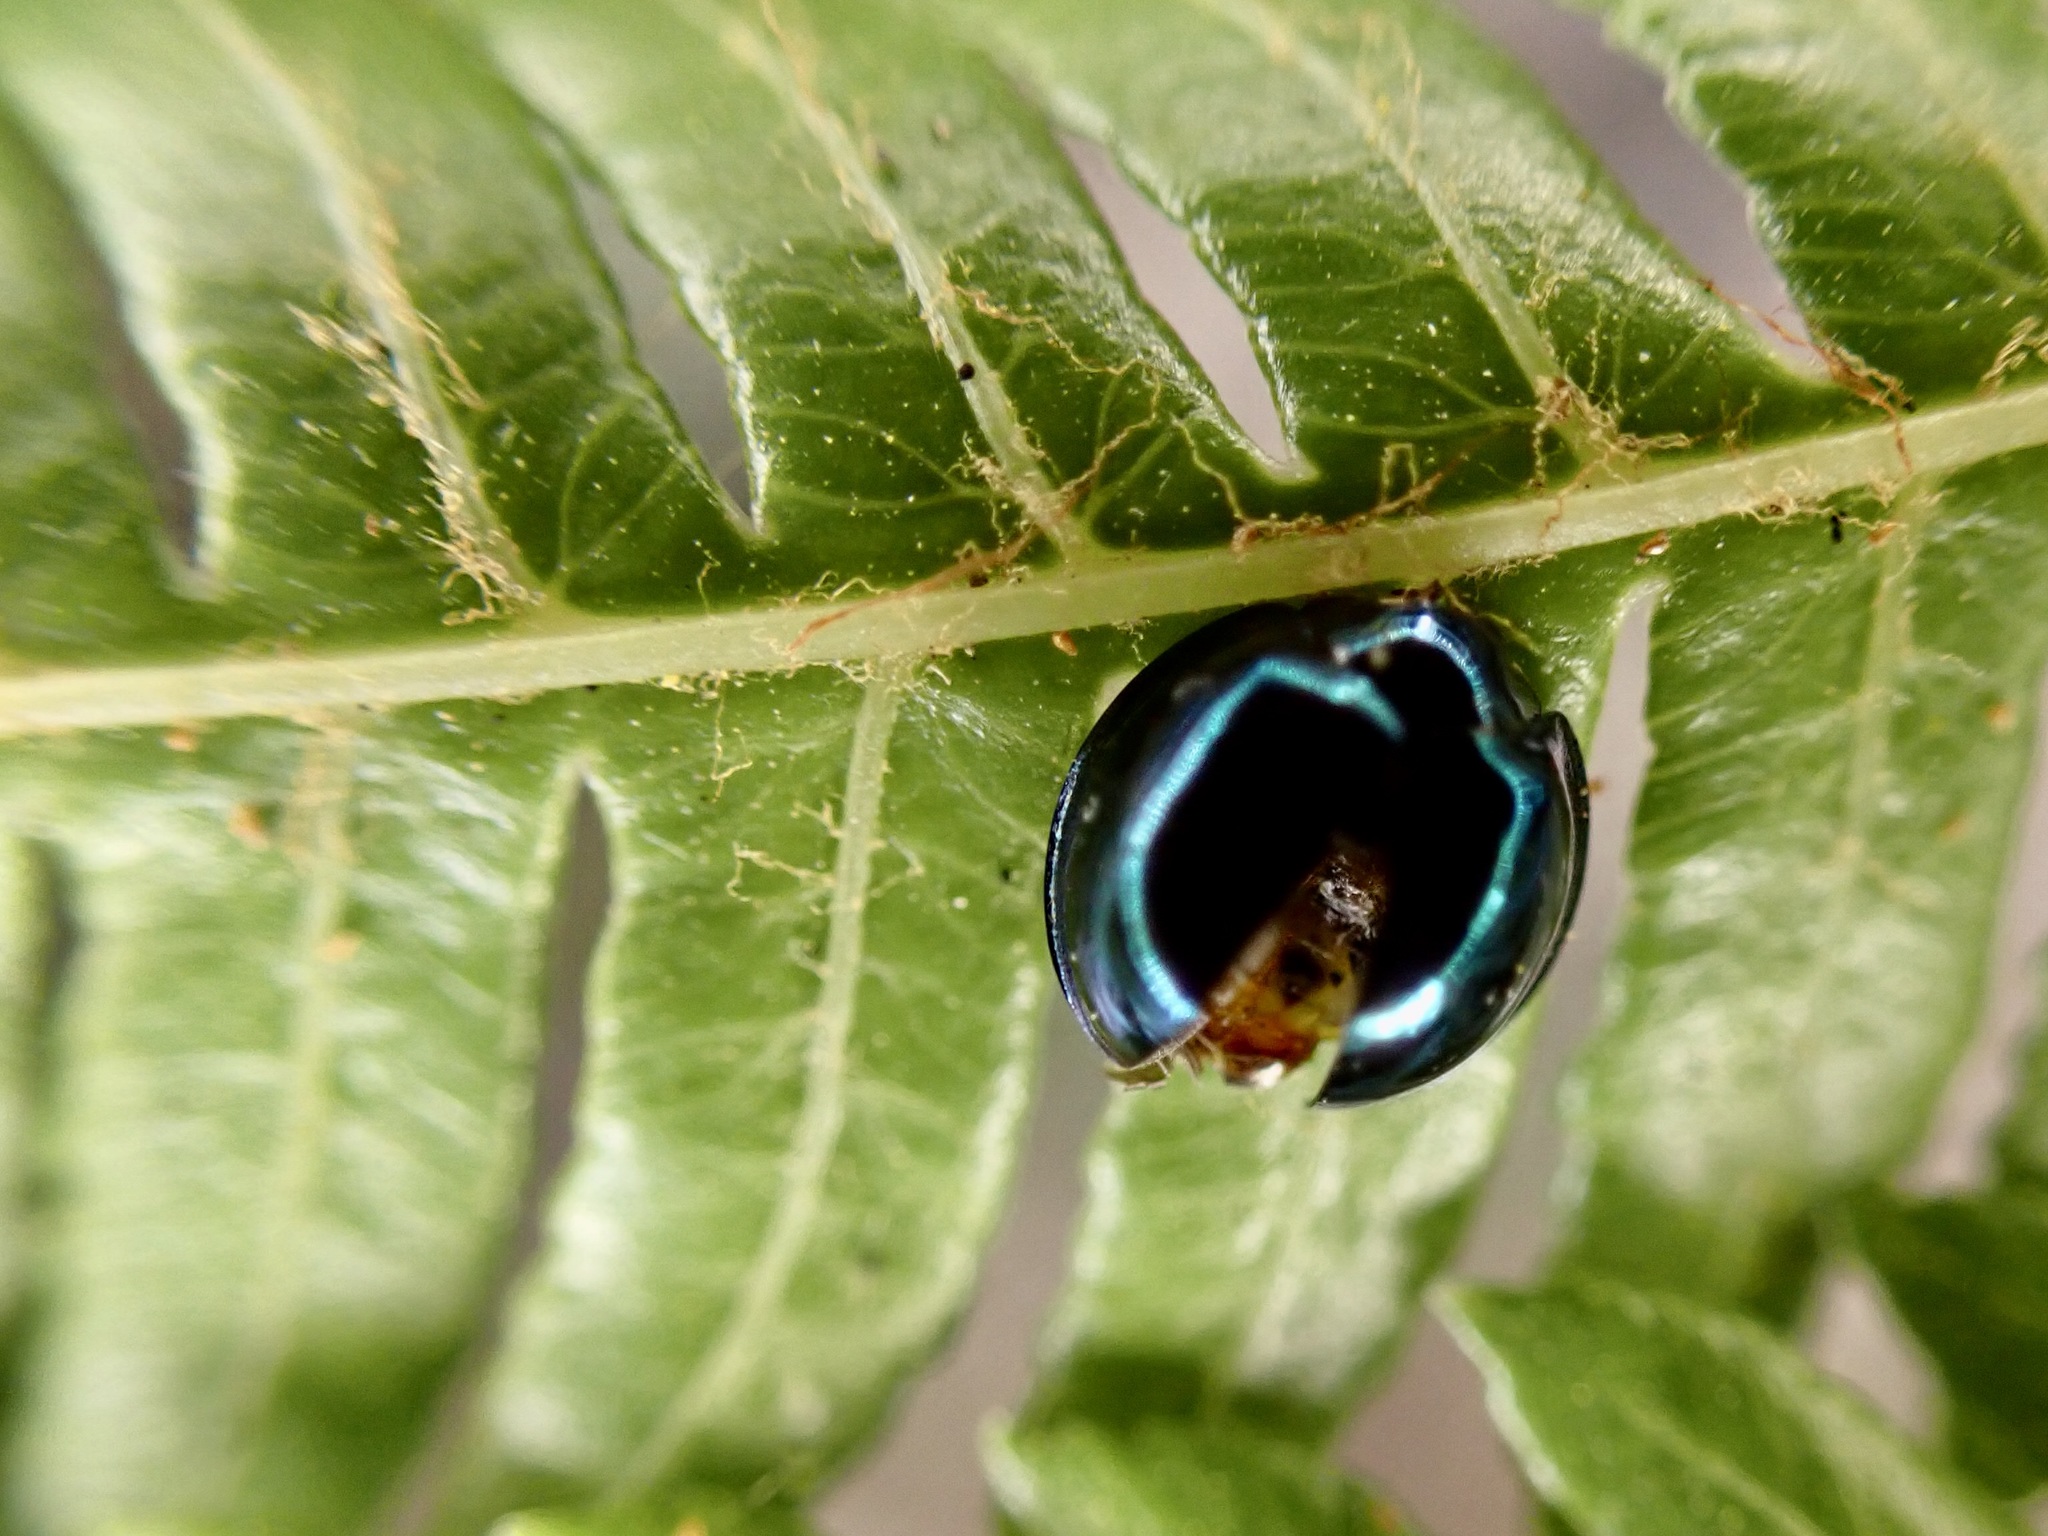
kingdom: Animalia
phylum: Arthropoda
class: Insecta
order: Coleoptera
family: Coccinellidae
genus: Halmus
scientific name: Halmus chalybeus
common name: Steel blue ladybird beetle
